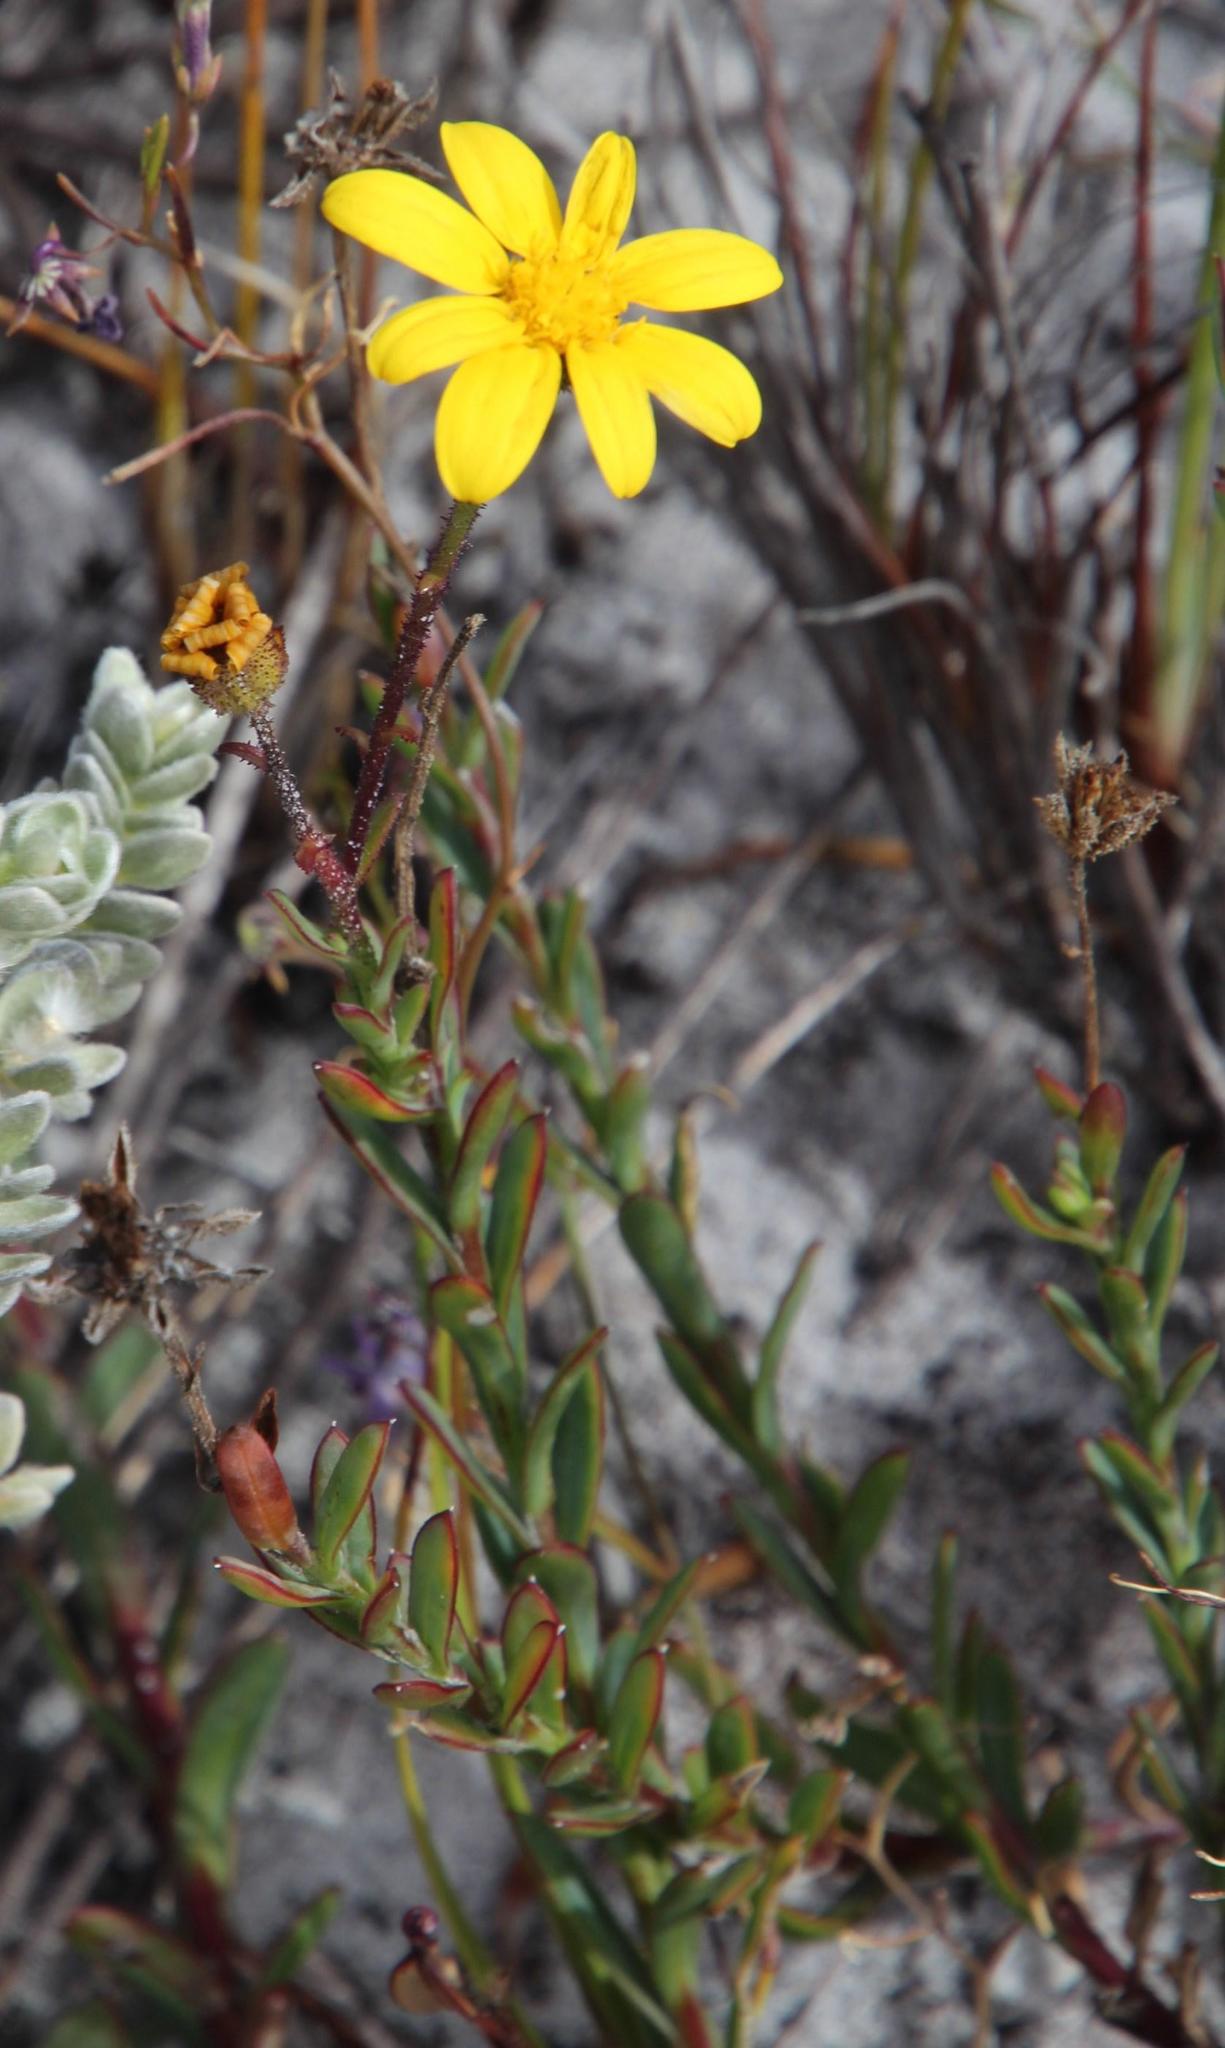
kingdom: Plantae
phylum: Tracheophyta
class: Magnoliopsida
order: Asterales
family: Asteraceae
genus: Osteospermum
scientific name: Osteospermum polygaloides
